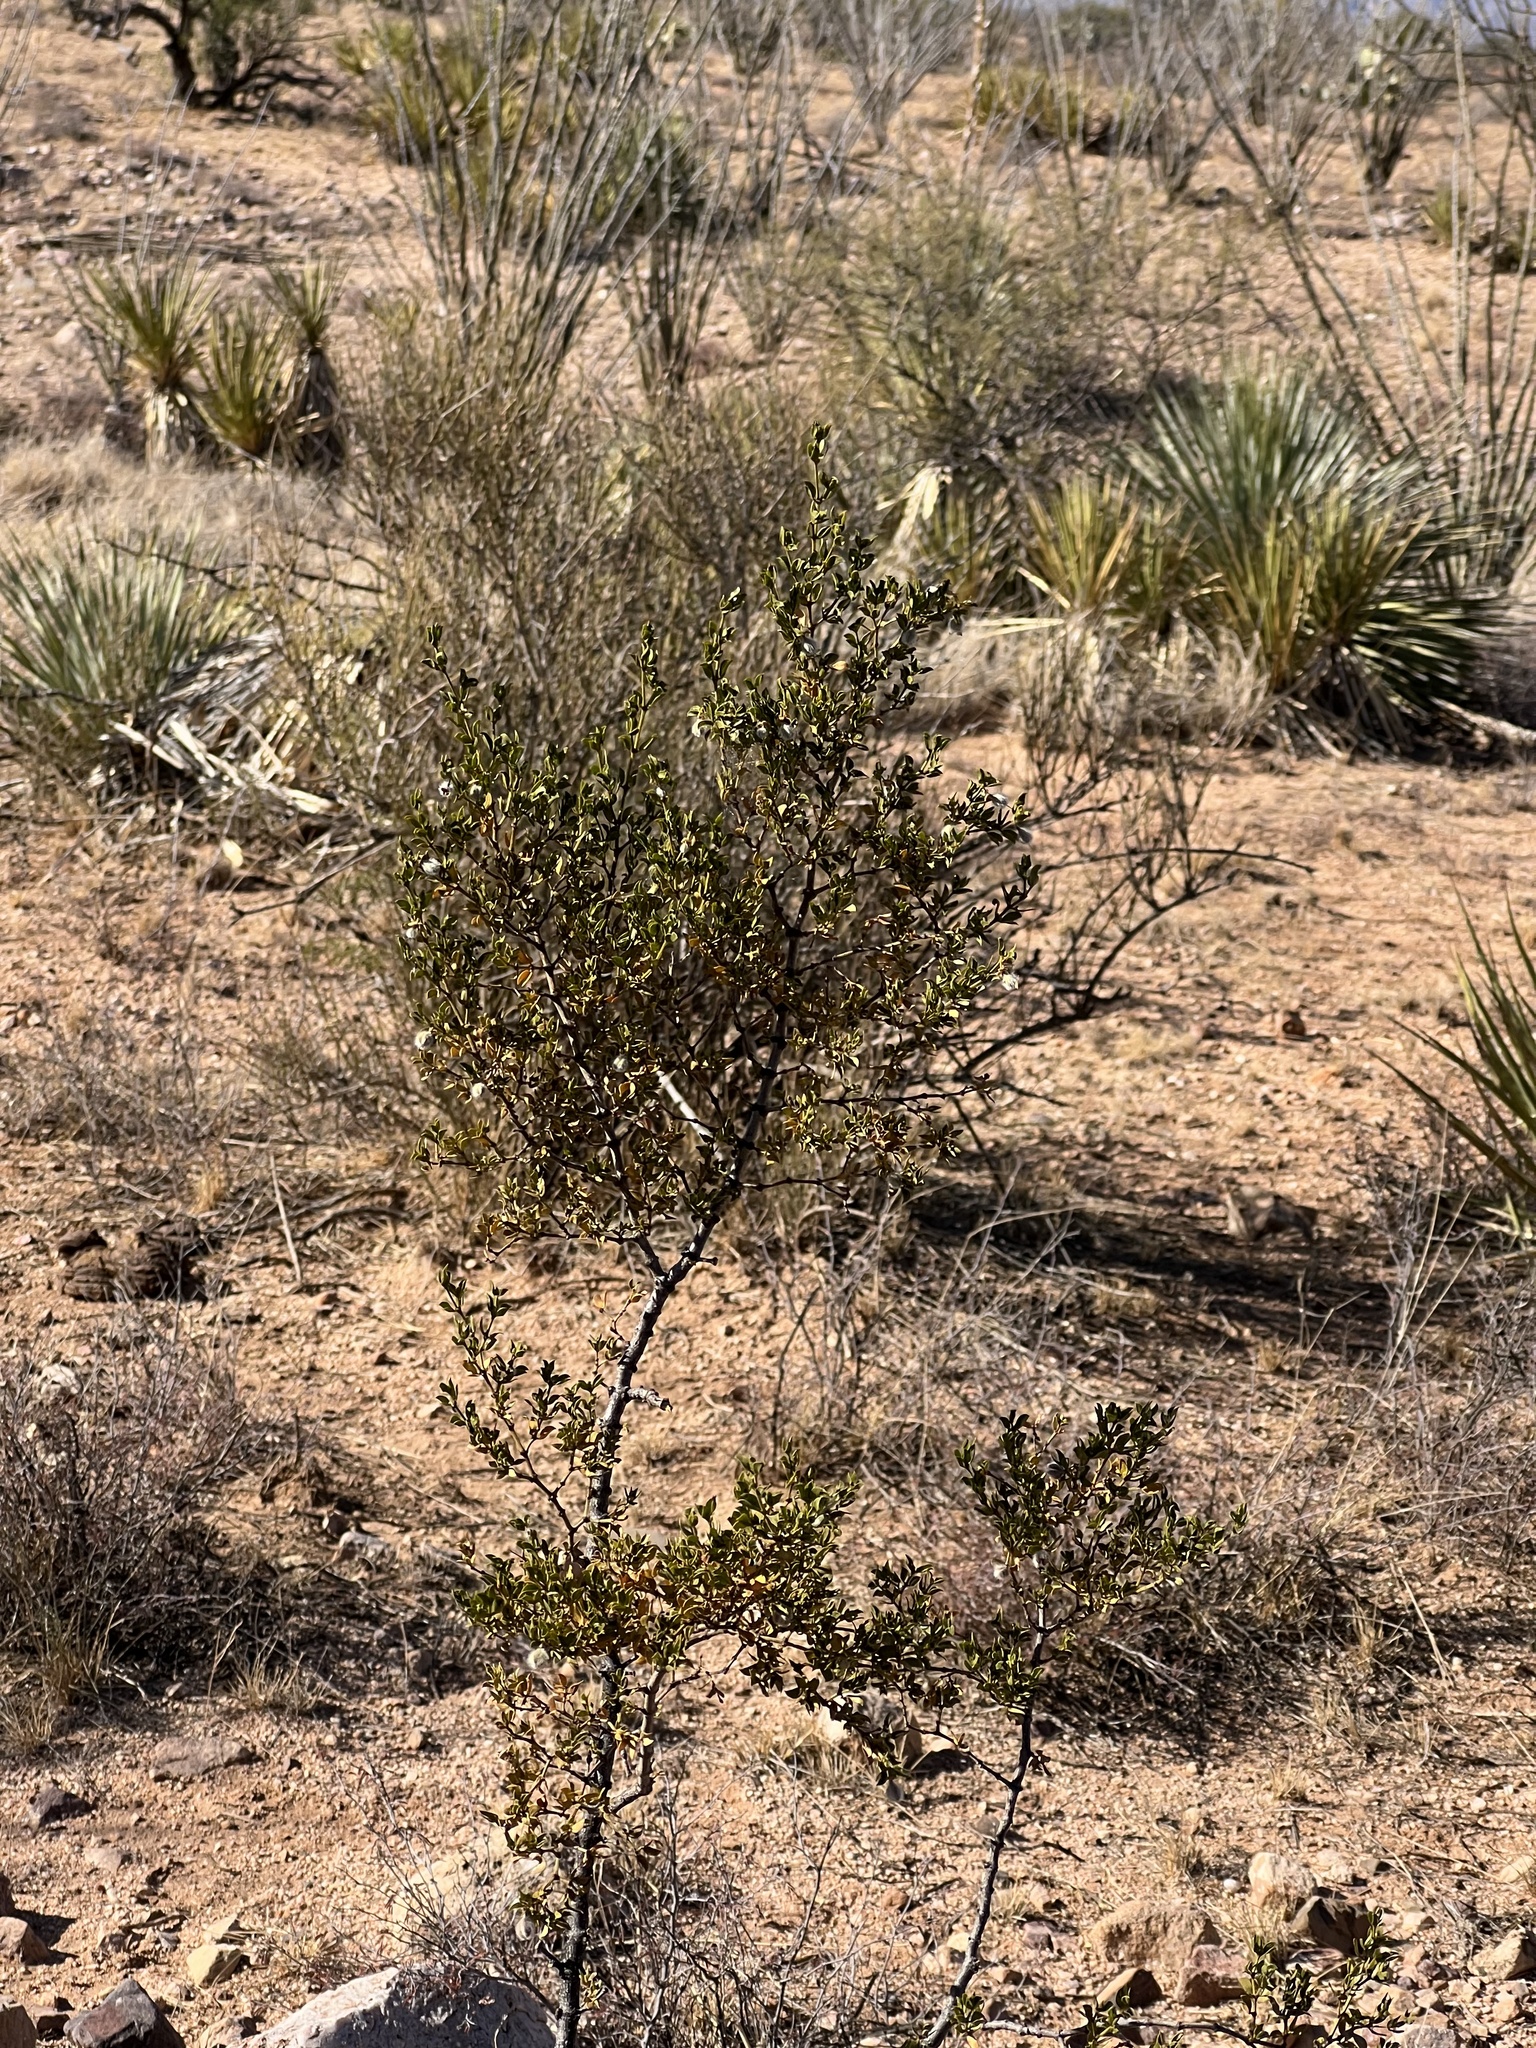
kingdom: Plantae
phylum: Tracheophyta
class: Magnoliopsida
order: Zygophyllales
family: Zygophyllaceae
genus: Larrea
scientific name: Larrea tridentata
